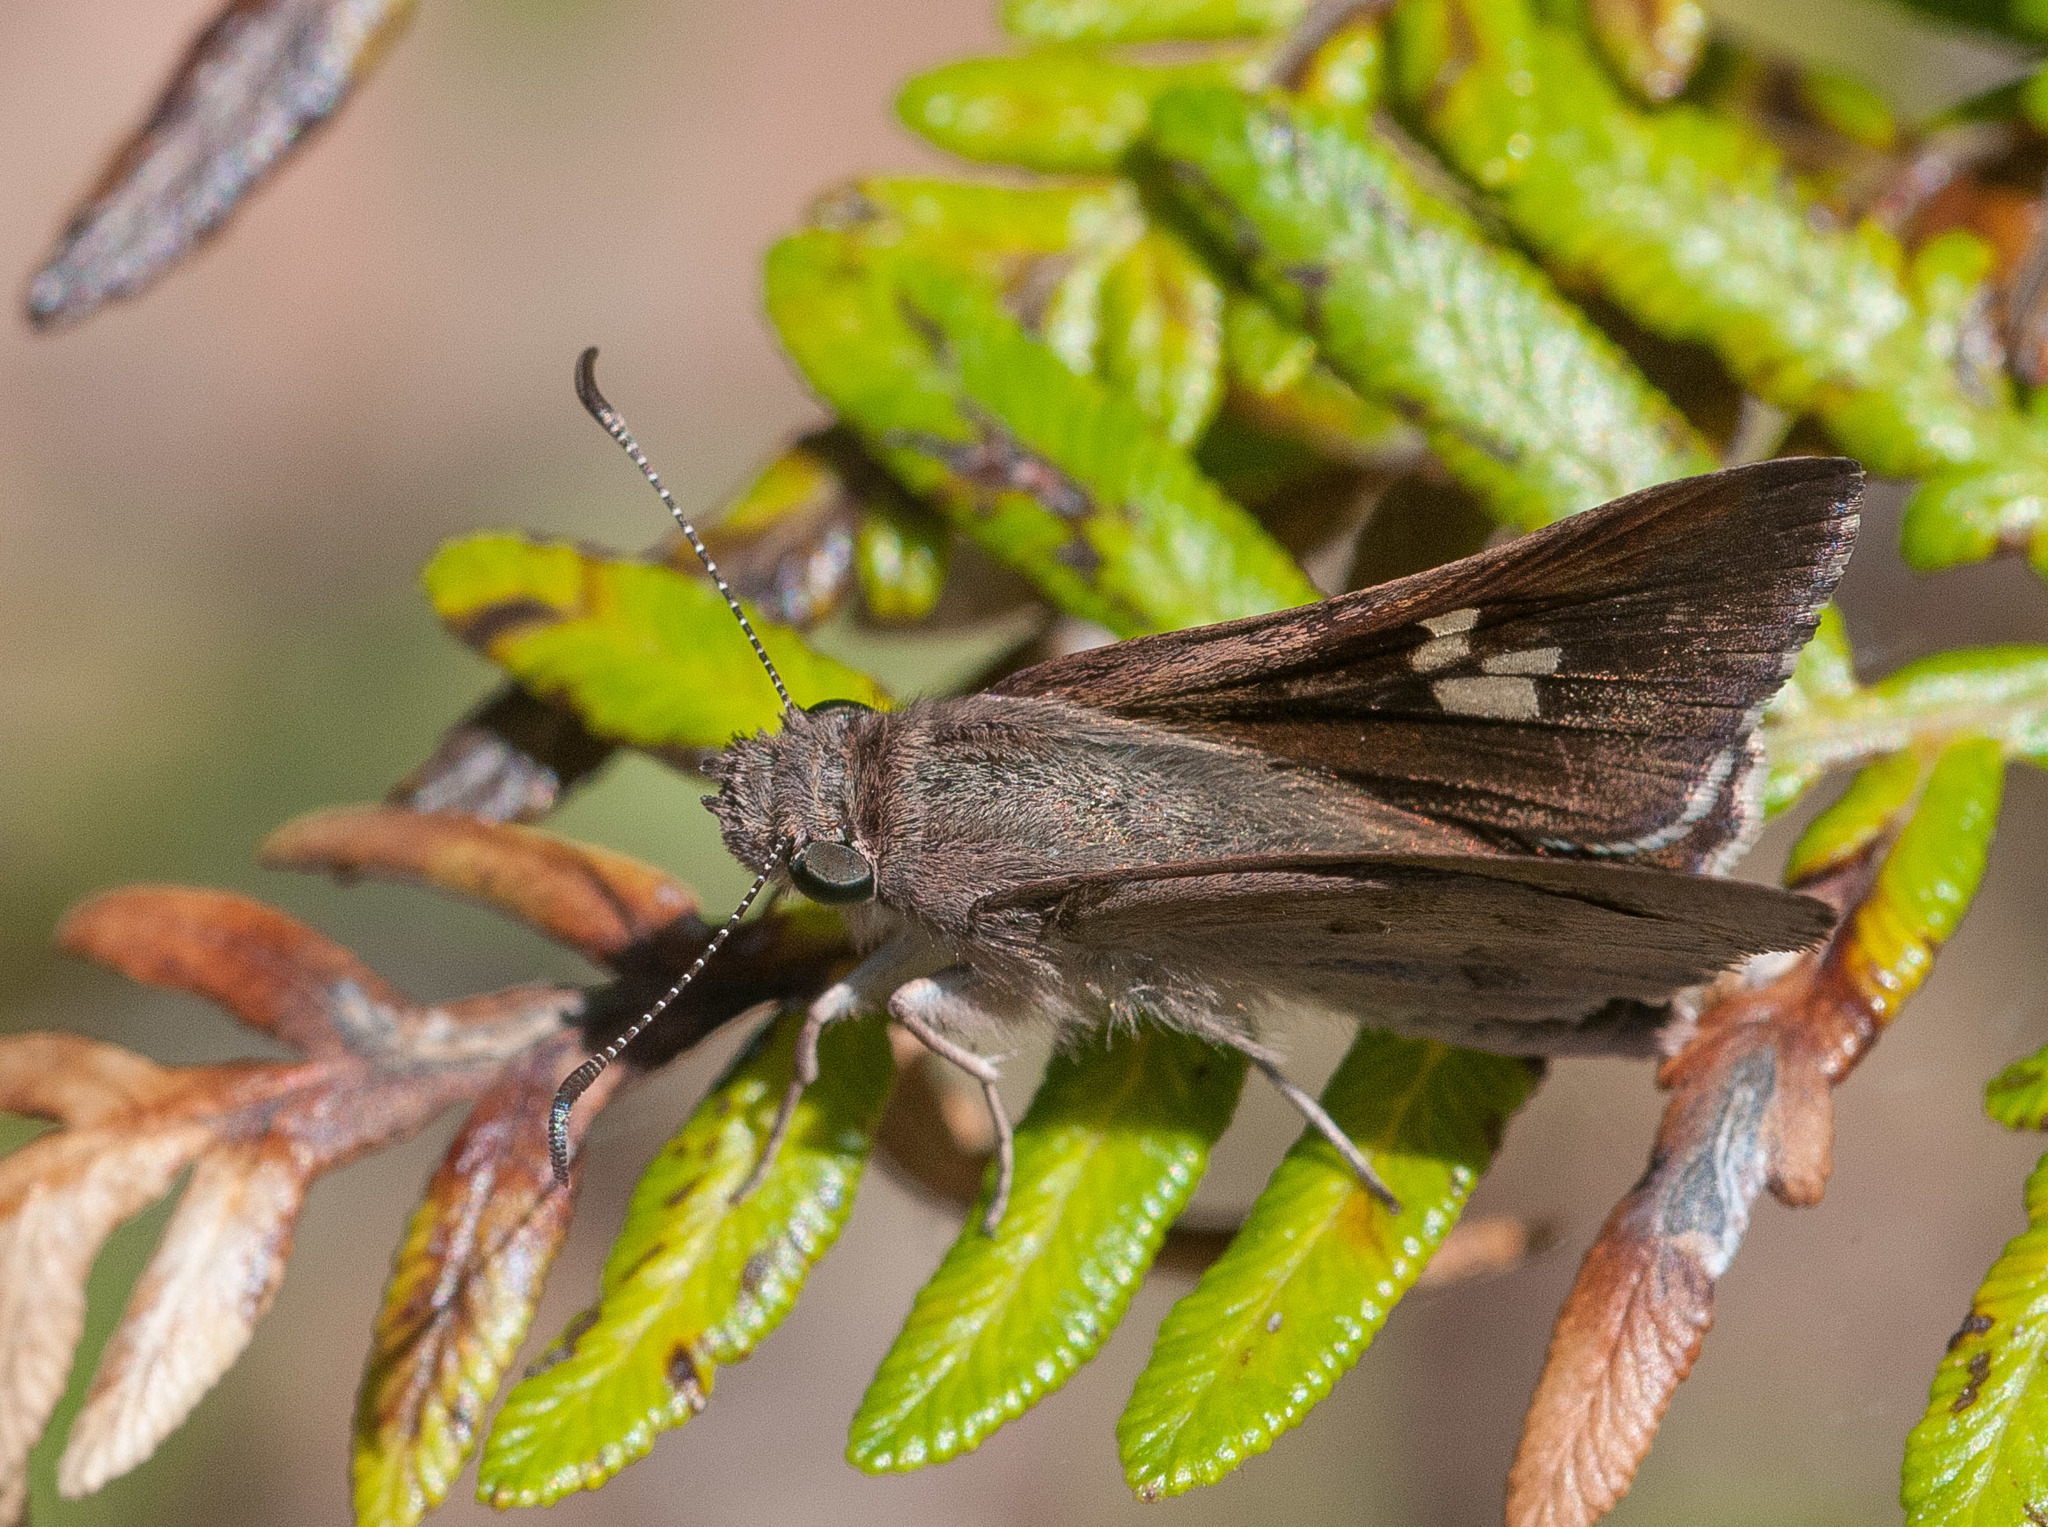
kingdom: Animalia
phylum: Arthropoda
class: Insecta
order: Lepidoptera
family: Hesperiidae
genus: Mesodina
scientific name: Mesodina halyzia
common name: Eastern iris-skipper
